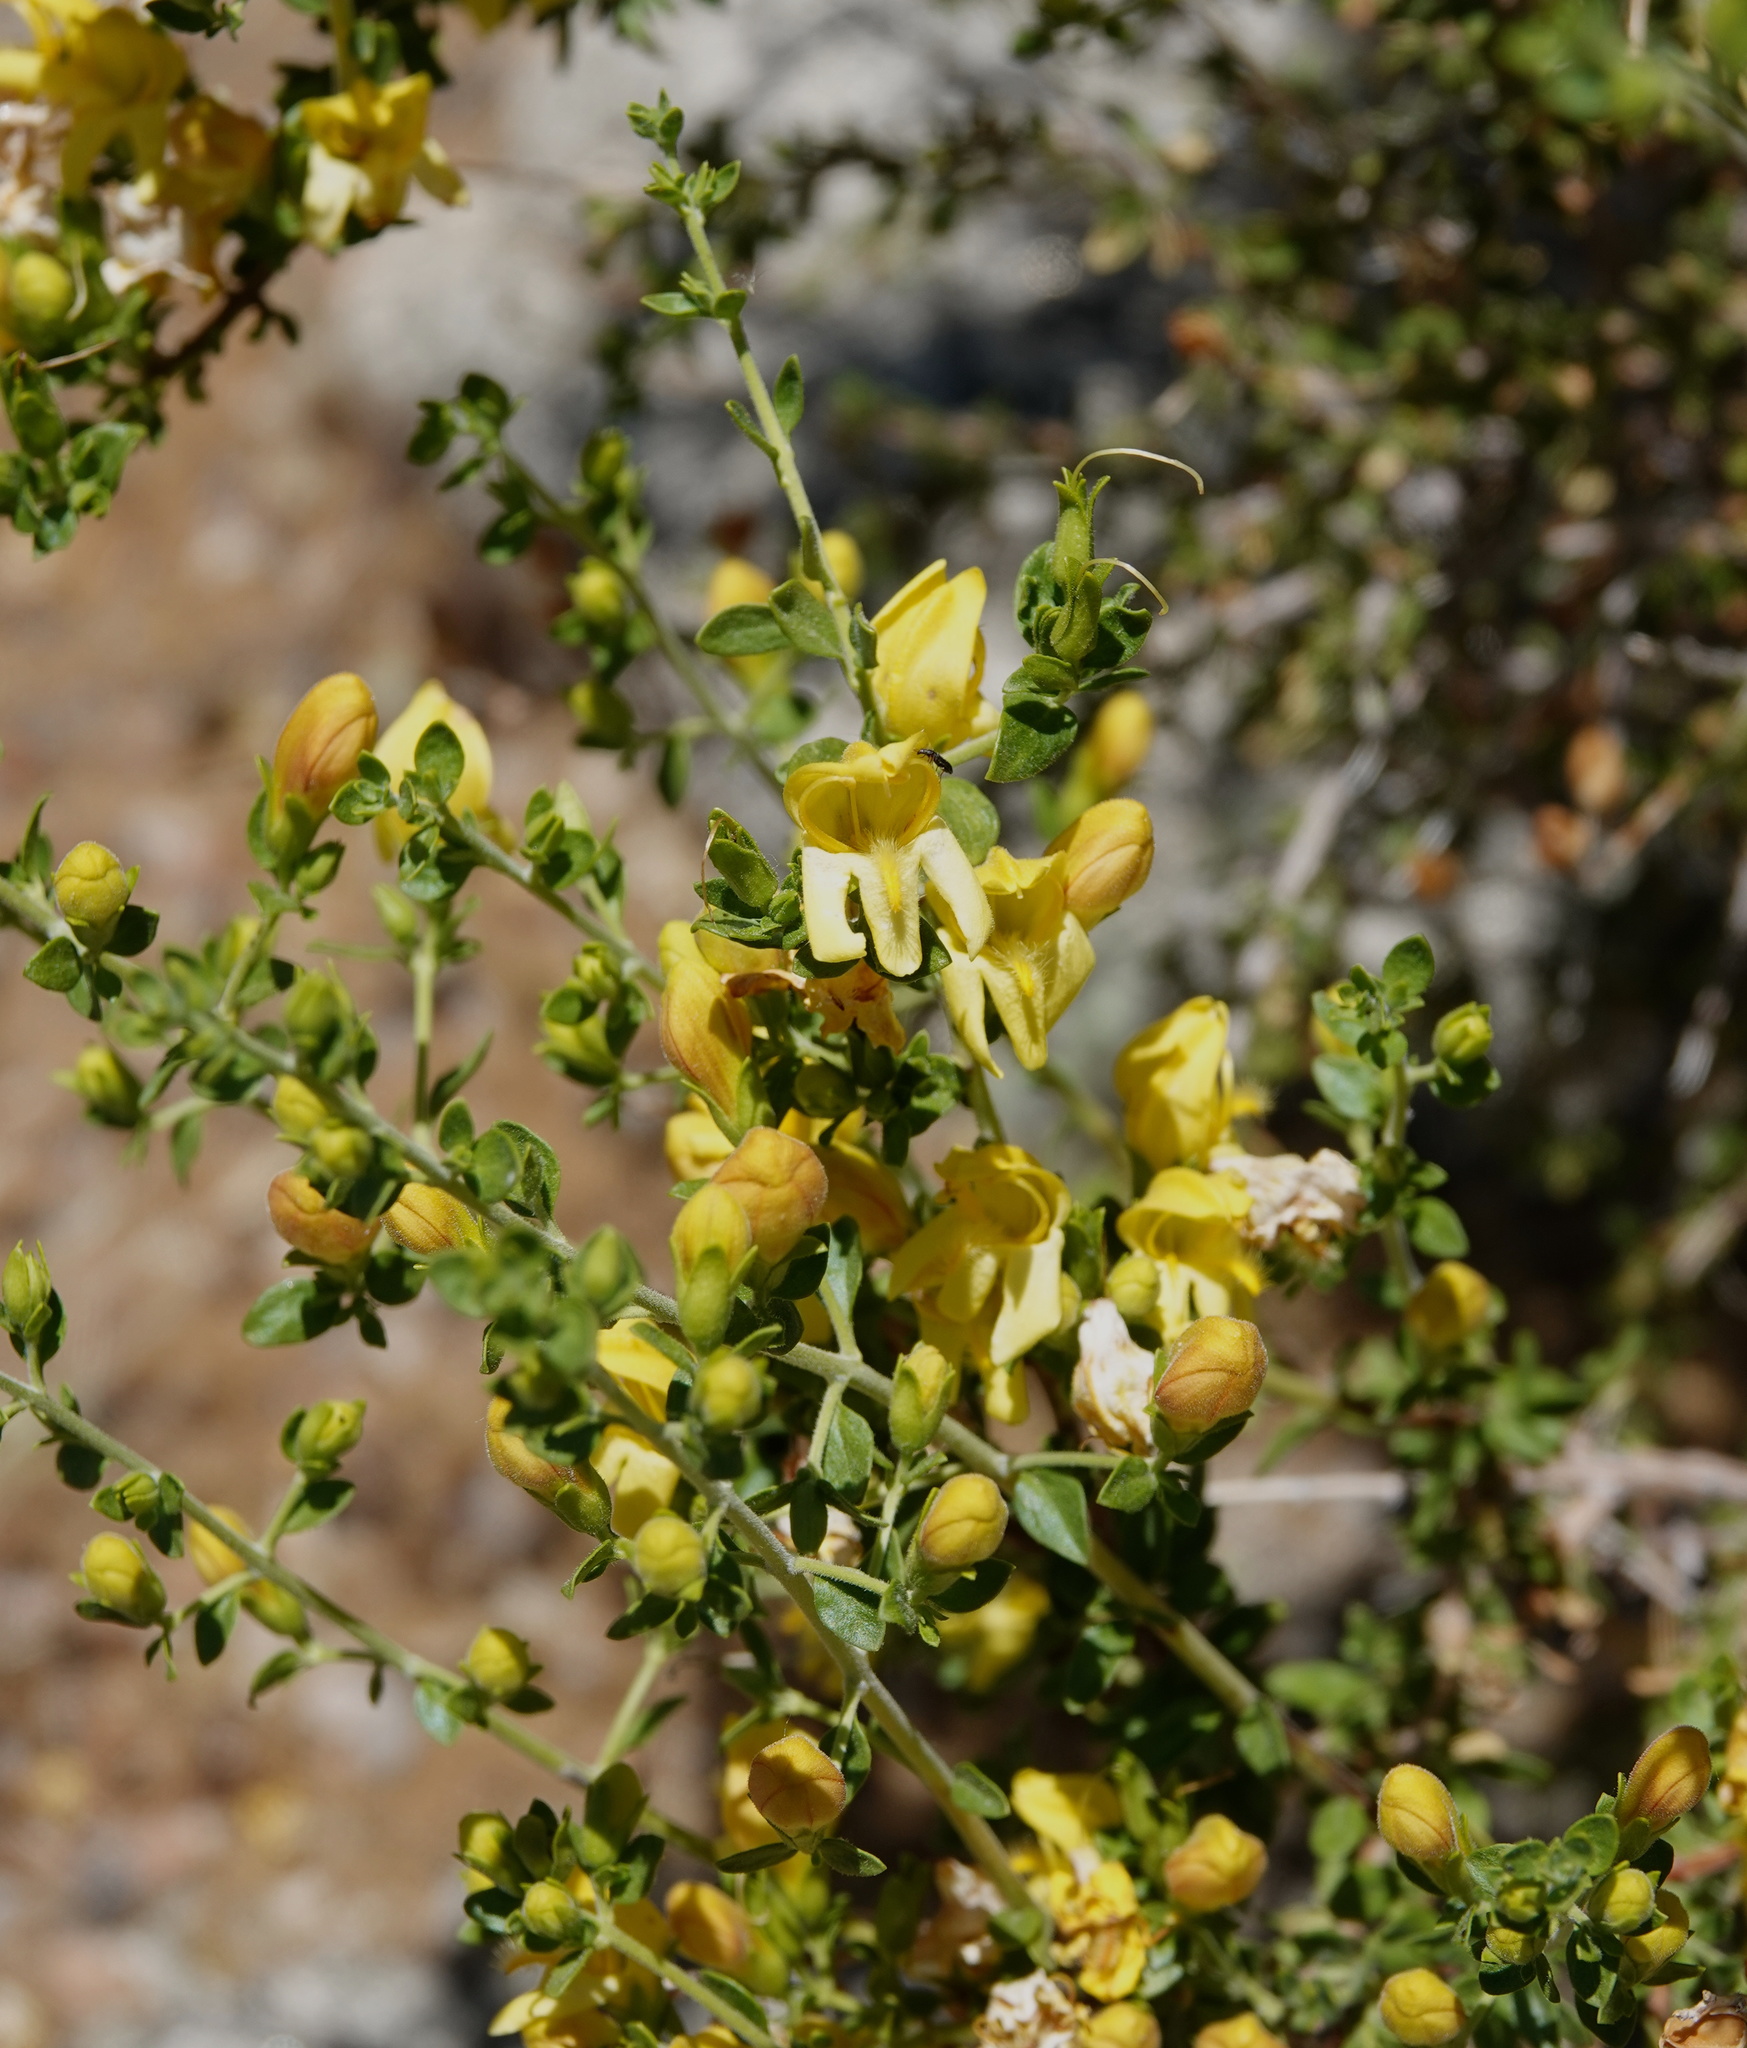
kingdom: Plantae
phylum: Tracheophyta
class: Magnoliopsida
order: Lamiales
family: Plantaginaceae
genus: Keckiella
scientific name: Keckiella antirrhinoides
